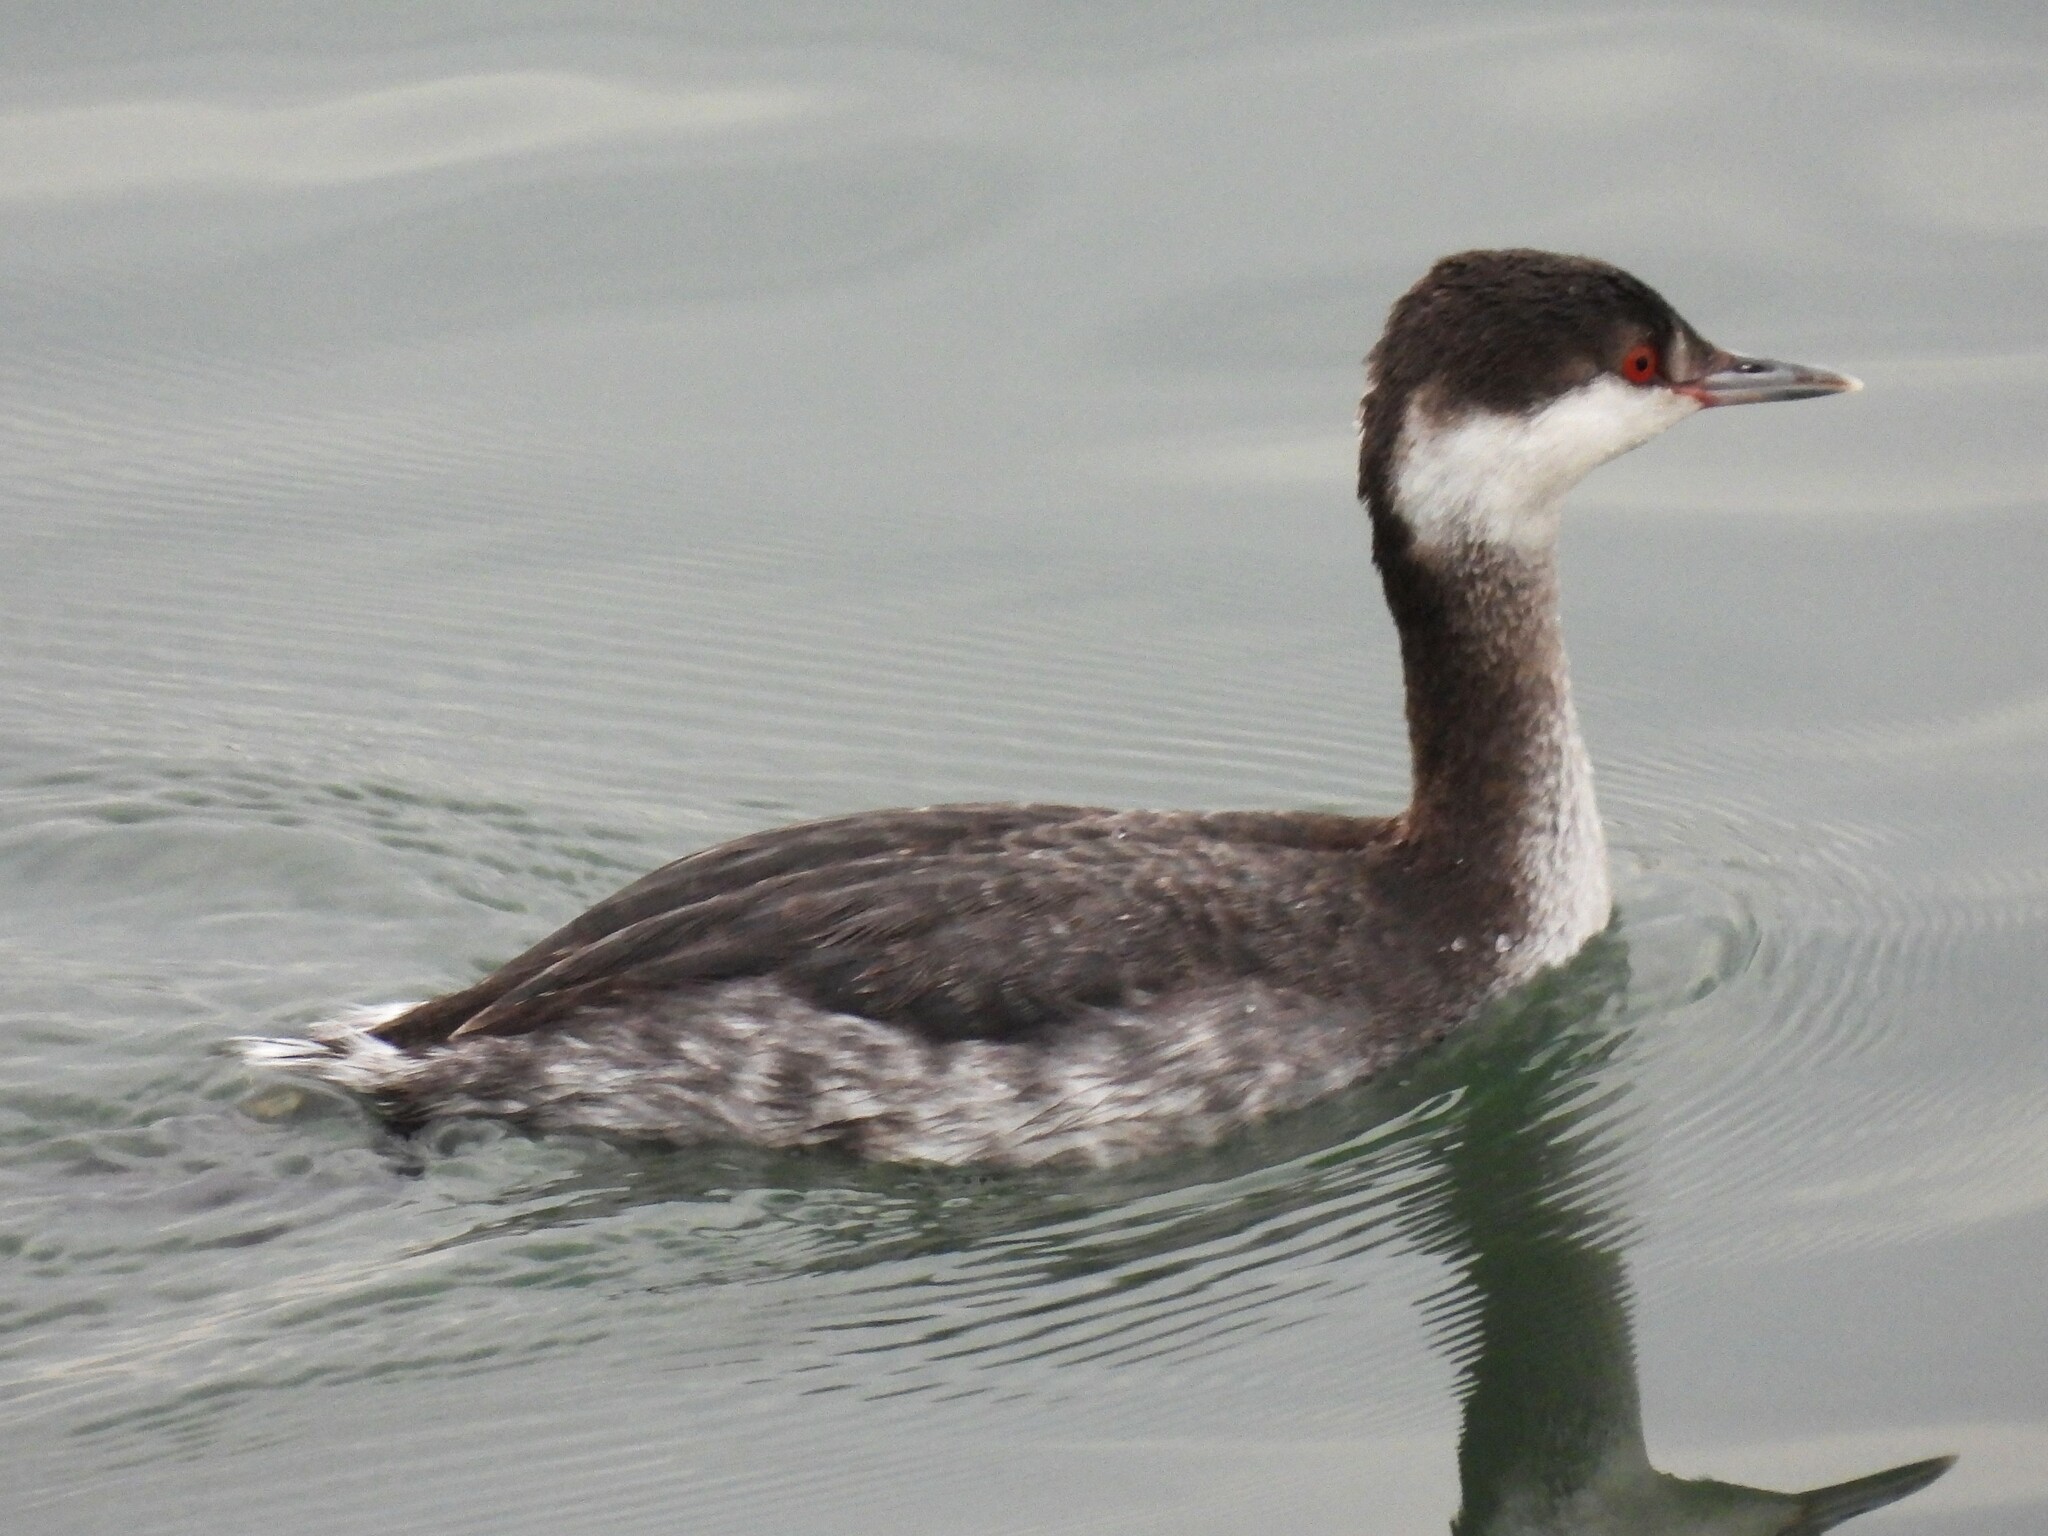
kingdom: Animalia
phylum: Chordata
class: Aves
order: Podicipediformes
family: Podicipedidae
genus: Podiceps
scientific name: Podiceps auritus
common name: Horned grebe
